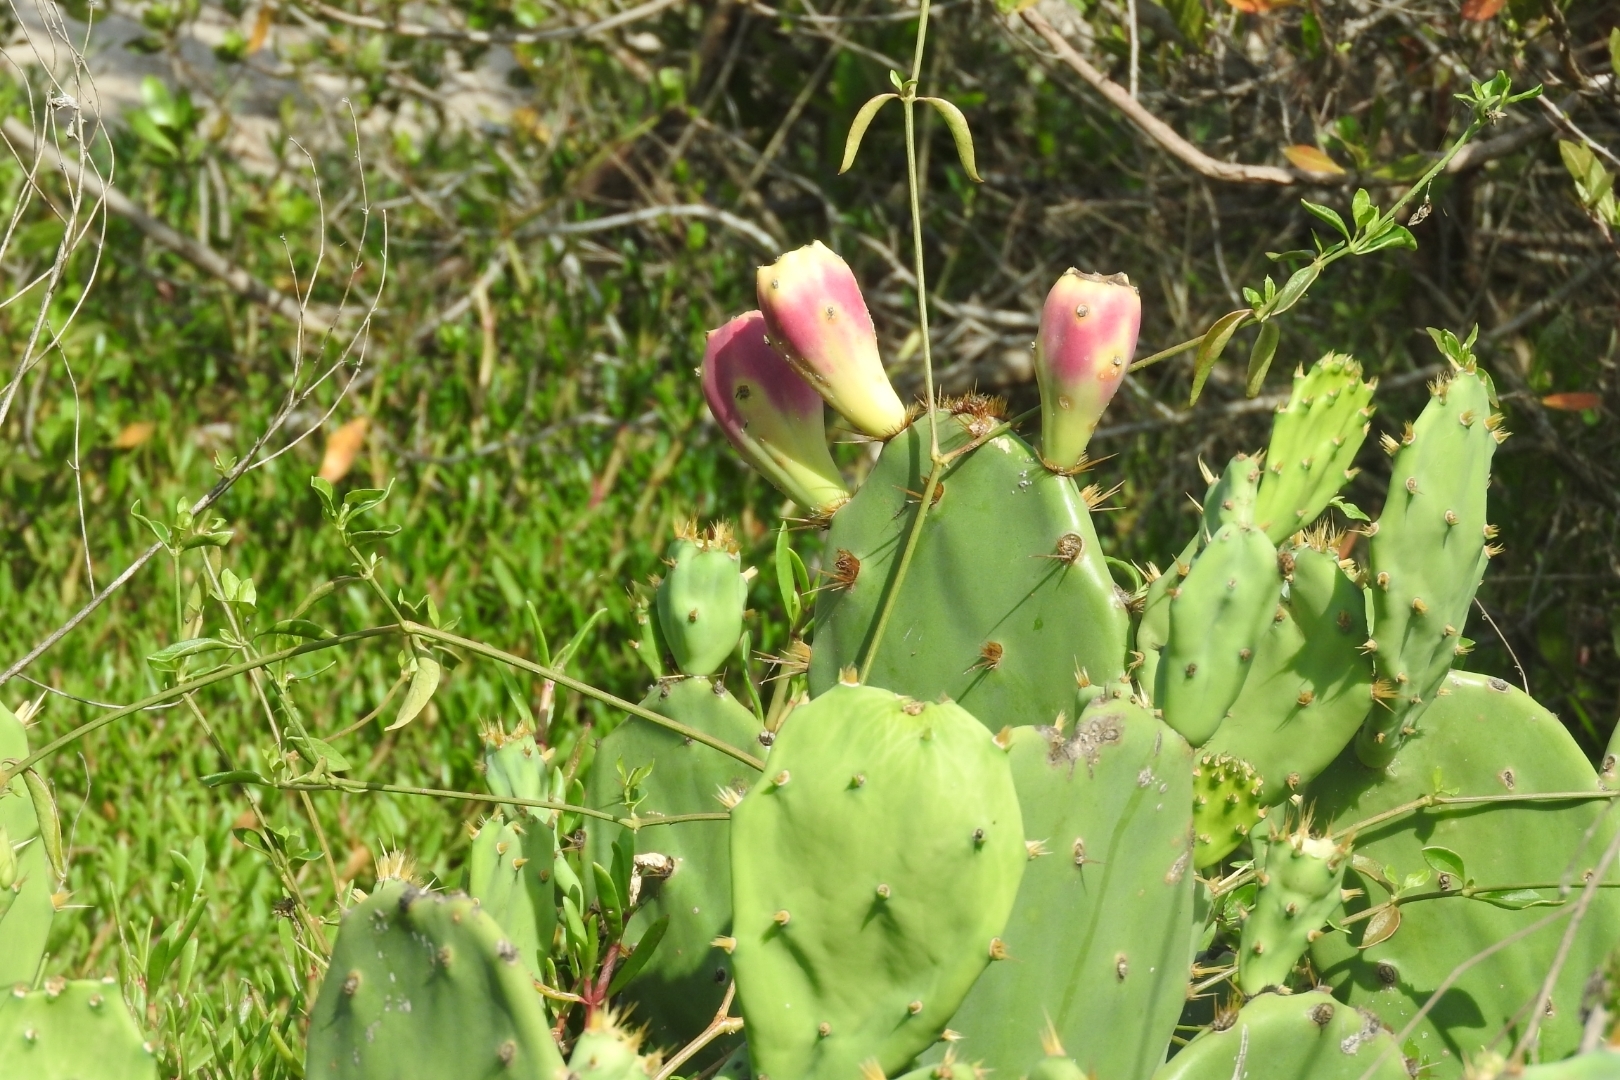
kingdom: Plantae
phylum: Tracheophyta
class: Magnoliopsida
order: Caryophyllales
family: Cactaceae
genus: Opuntia
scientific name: Opuntia dillenii
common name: Sour prickle
